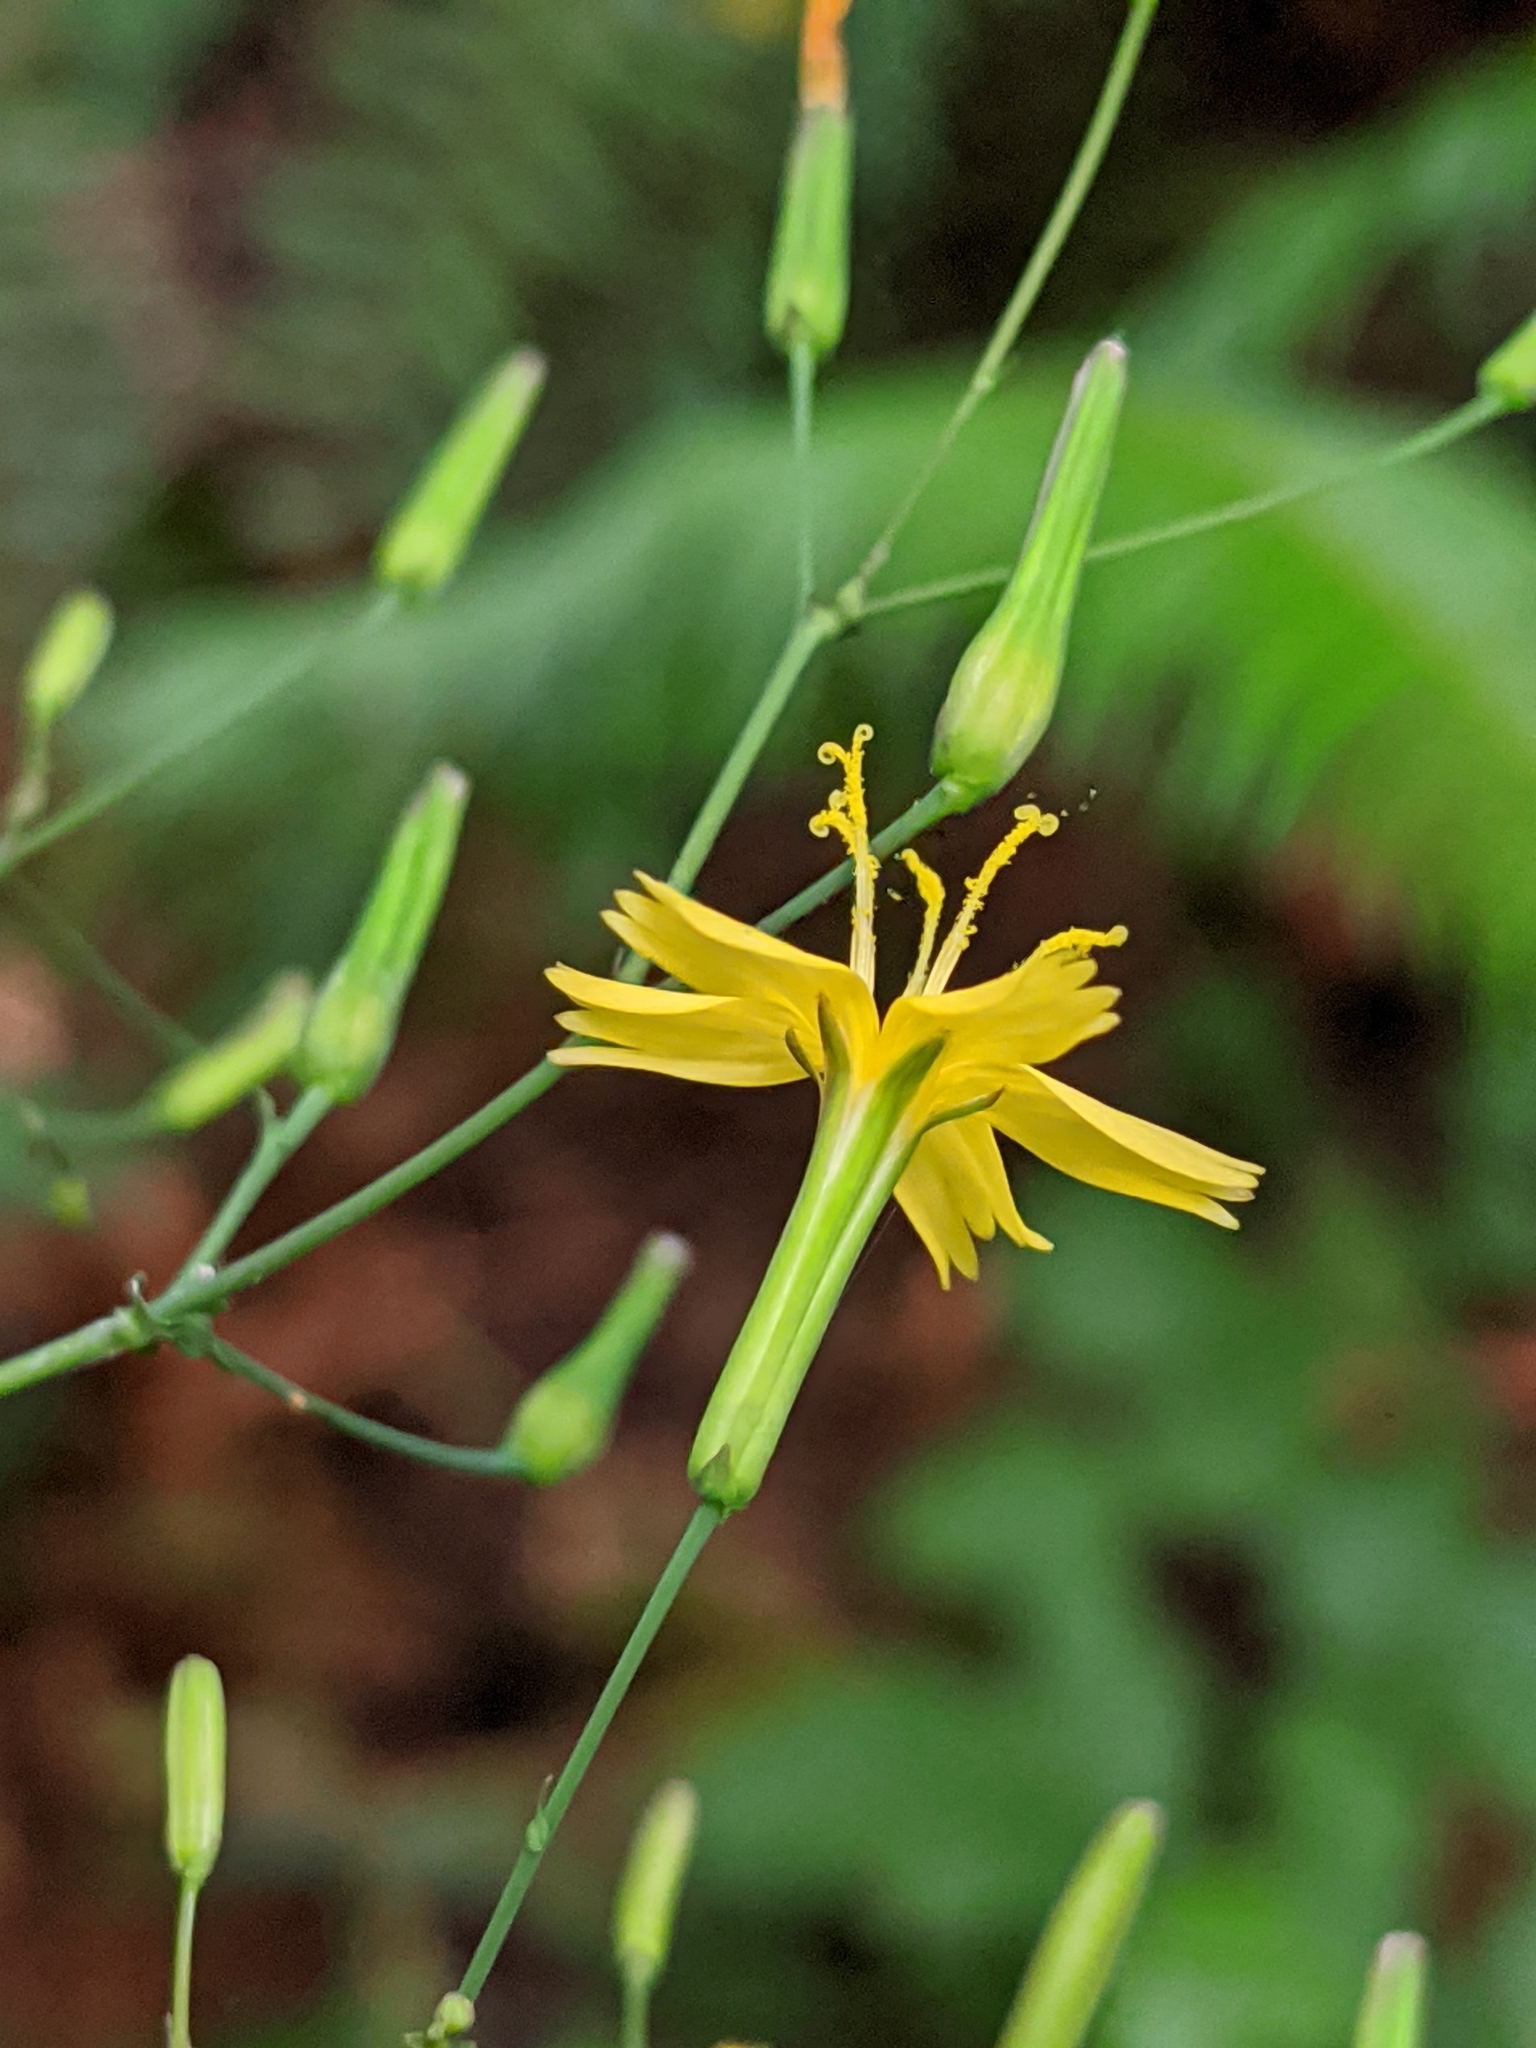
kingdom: Plantae
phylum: Tracheophyta
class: Magnoliopsida
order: Asterales
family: Asteraceae
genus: Mycelis
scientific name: Mycelis muralis
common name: Wall lettuce
